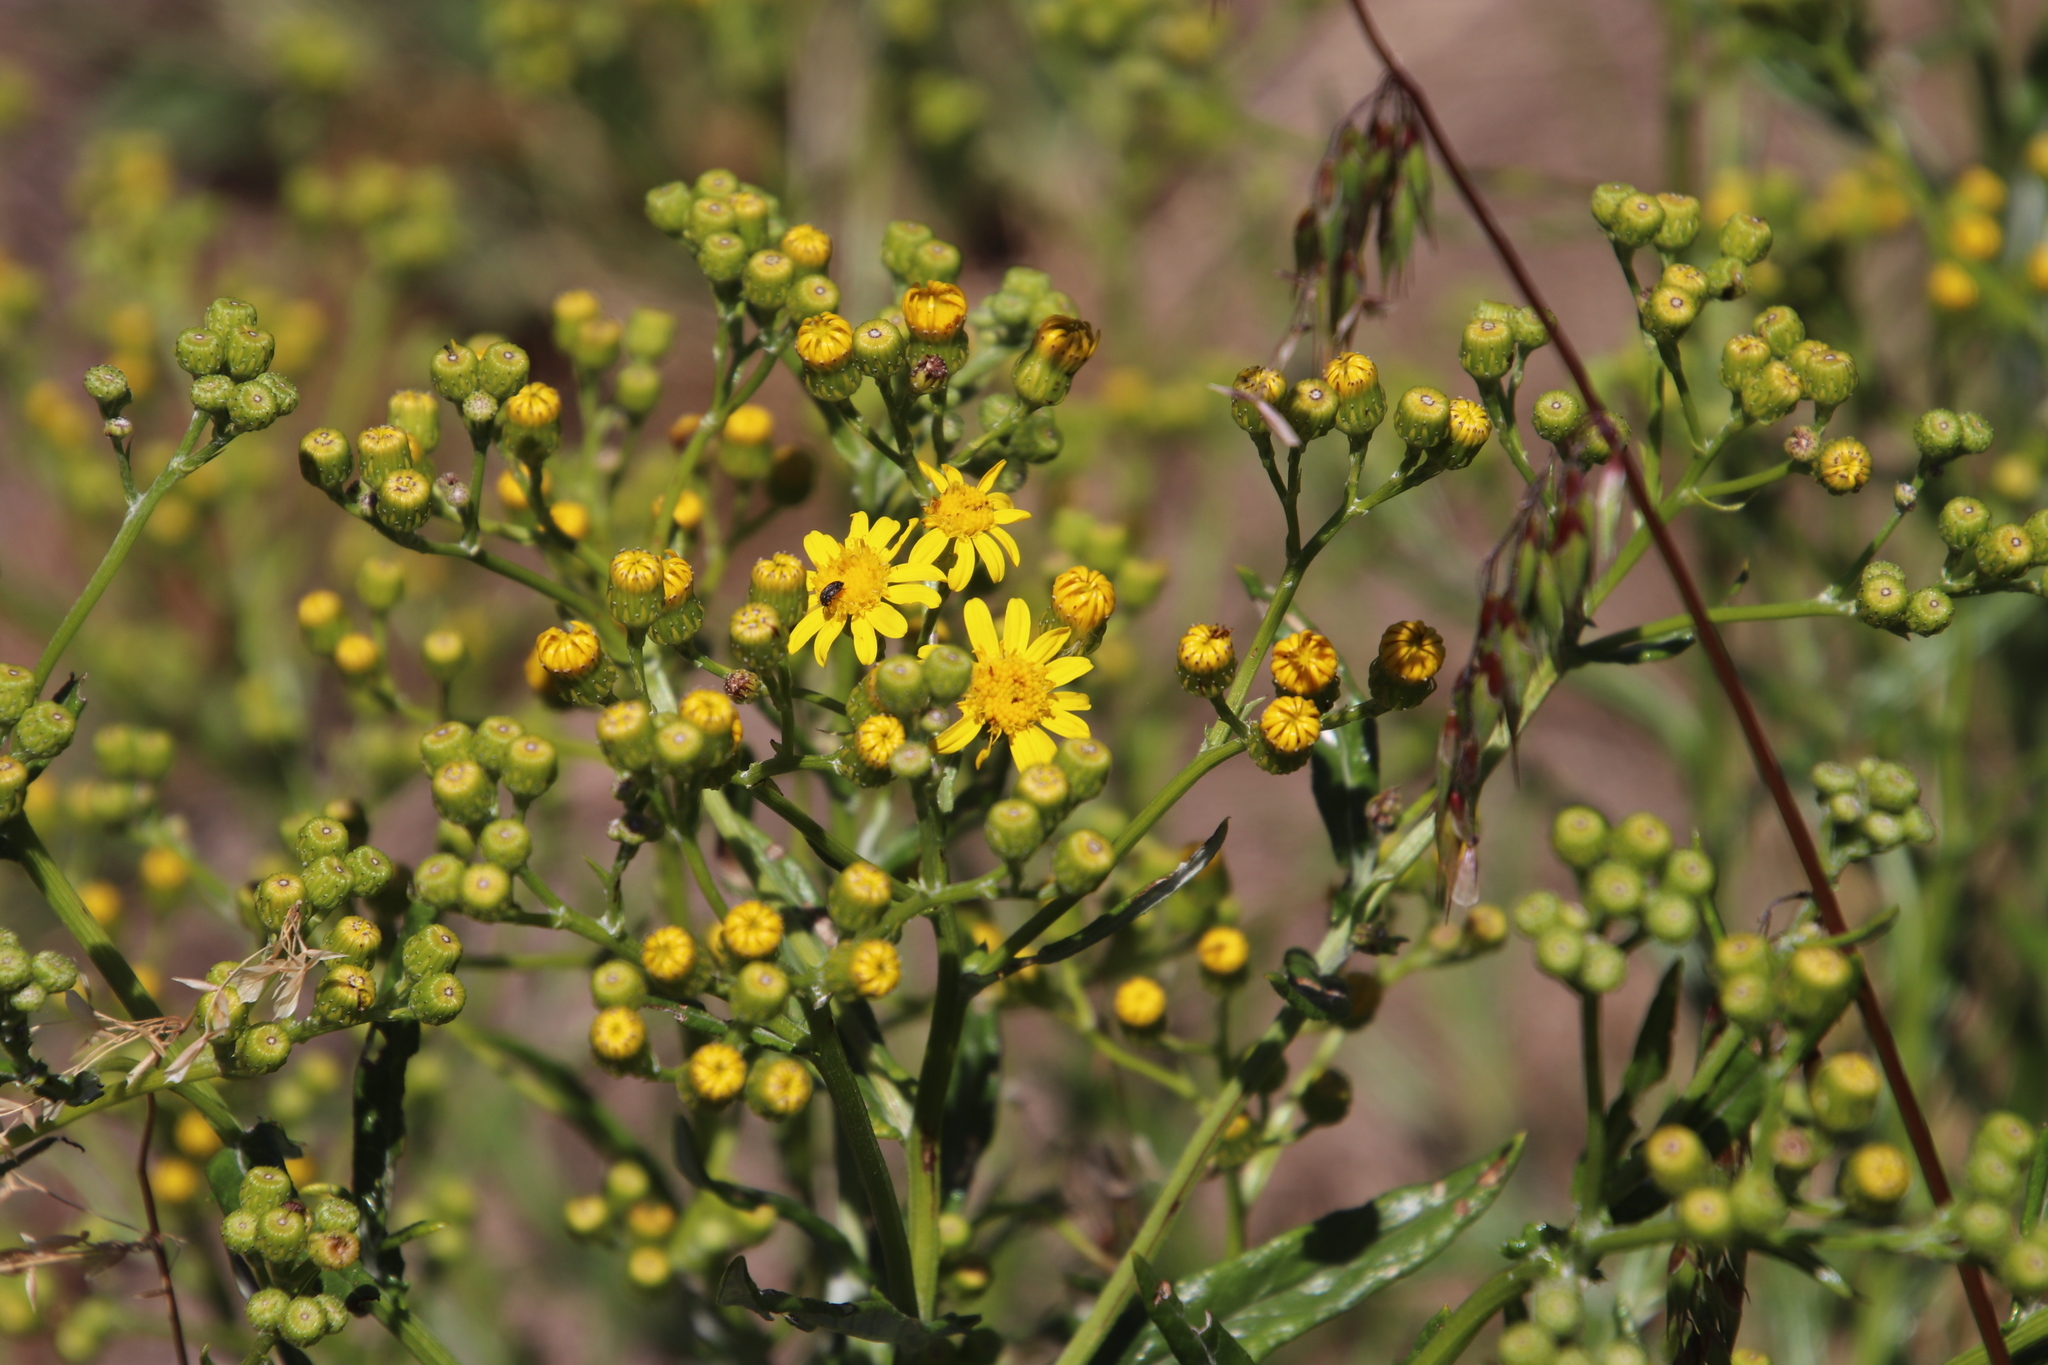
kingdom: Plantae
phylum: Tracheophyta
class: Magnoliopsida
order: Asterales
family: Asteraceae
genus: Senecio
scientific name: Senecio pterophorus
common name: Shoddy ragwort
